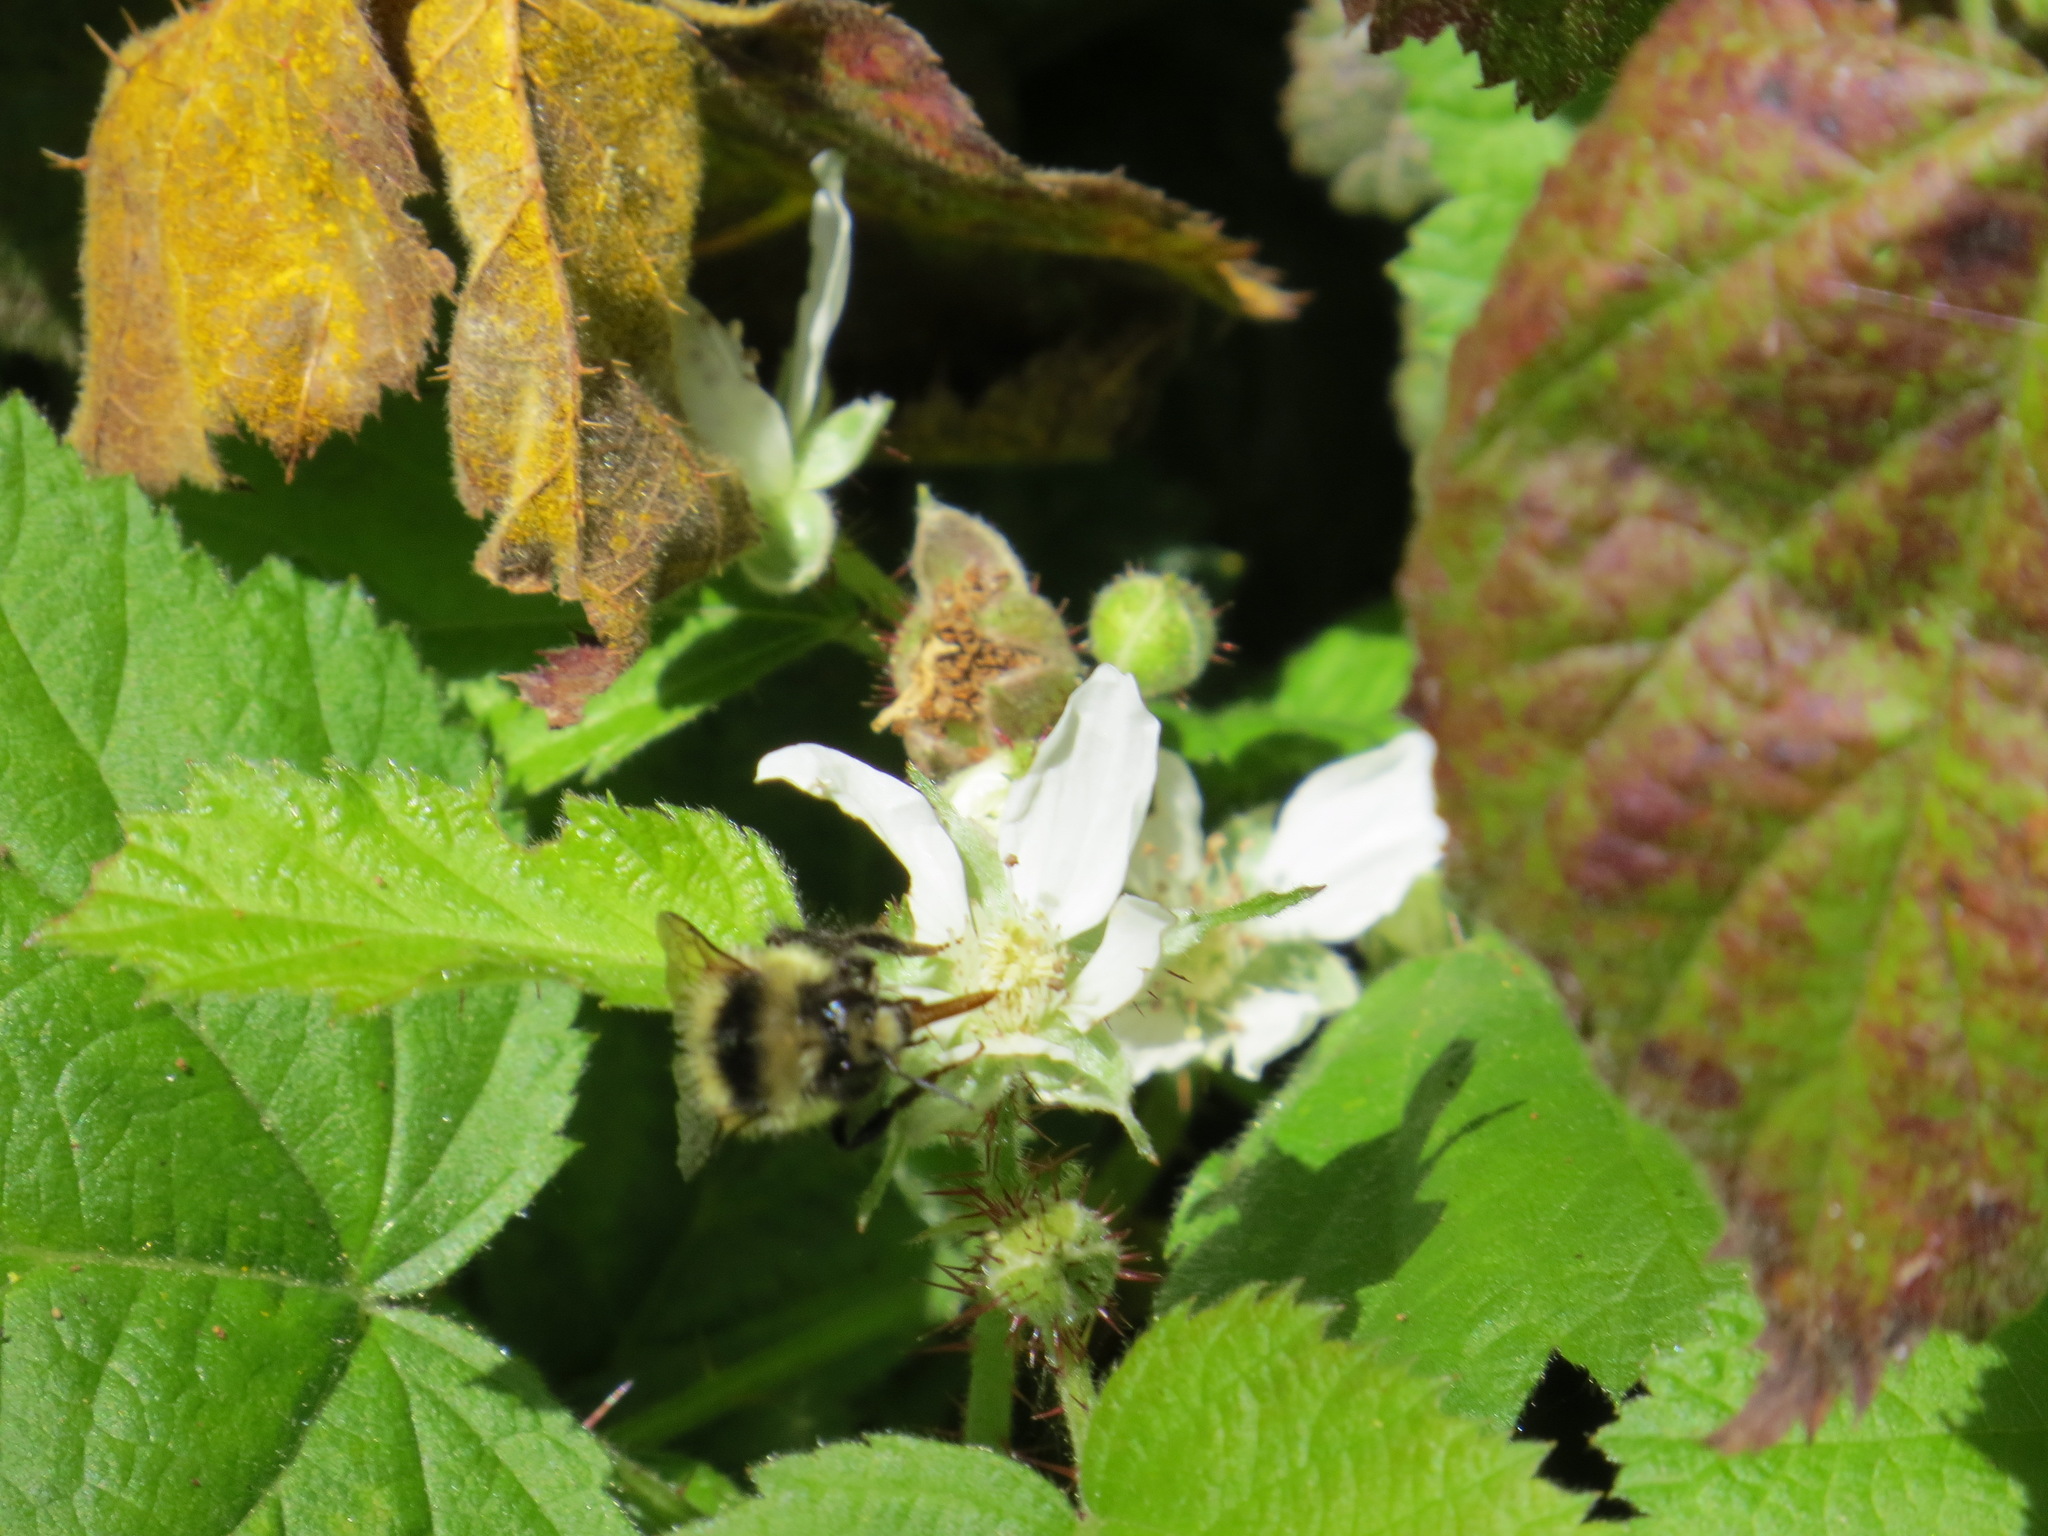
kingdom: Animalia
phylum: Arthropoda
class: Insecta
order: Hymenoptera
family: Apidae
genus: Bombus
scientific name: Bombus melanopygus
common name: Black tail bumble bee
